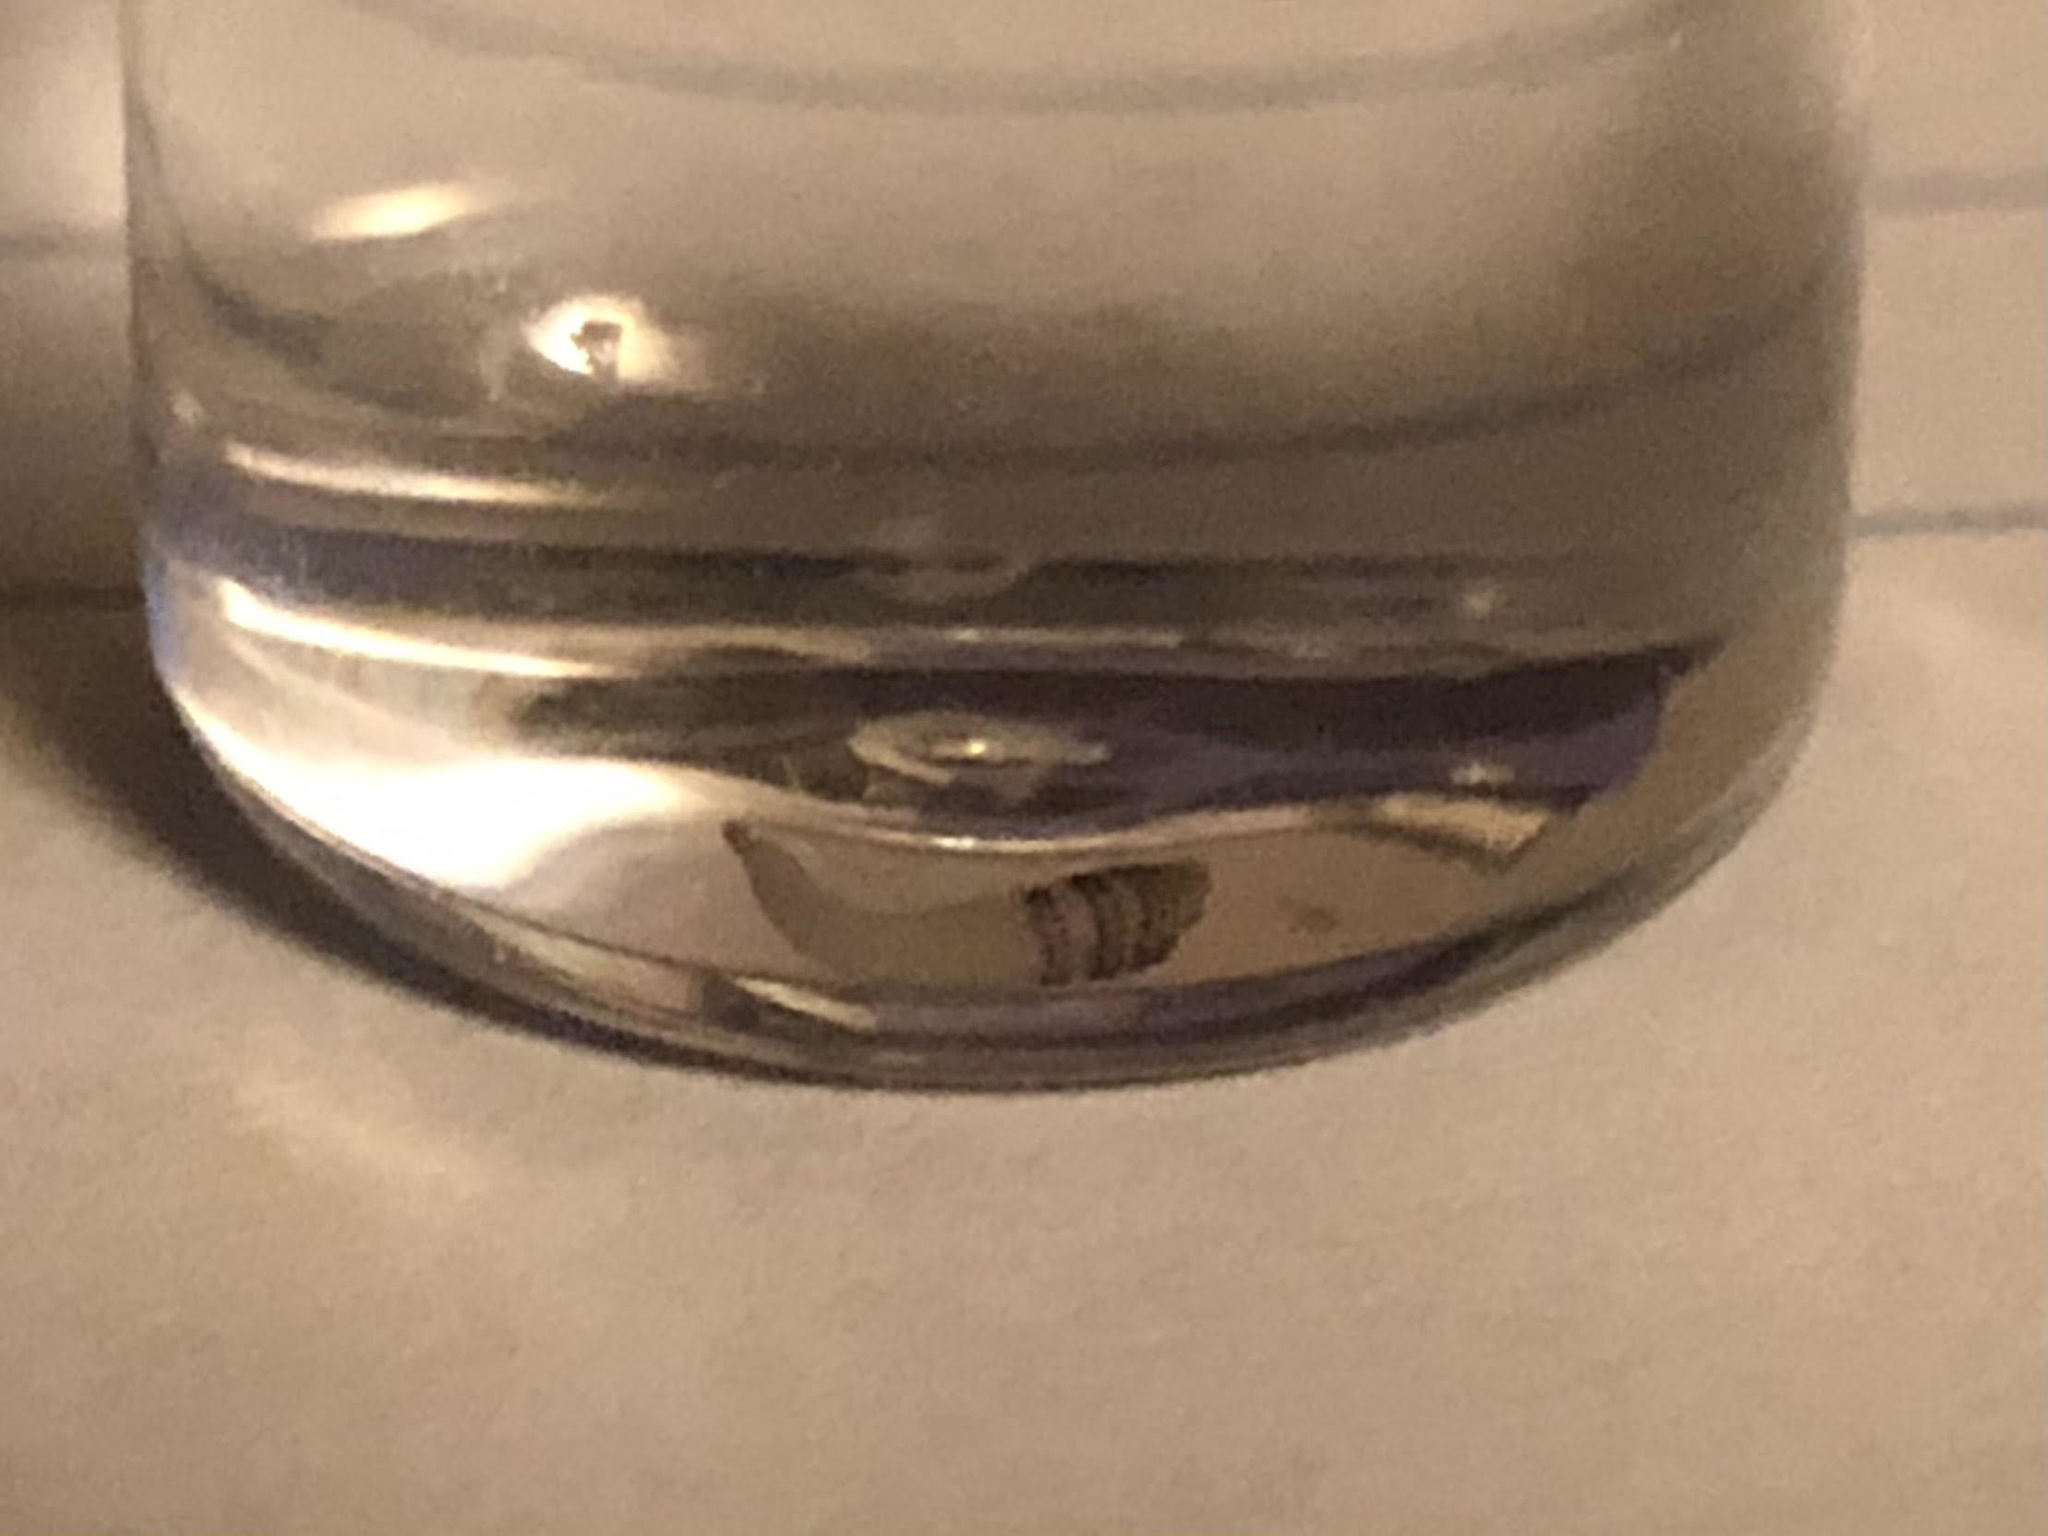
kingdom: Animalia
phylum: Arthropoda
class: Insecta
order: Diptera
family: Oestridae
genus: Dermatobia
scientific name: Dermatobia hominis
